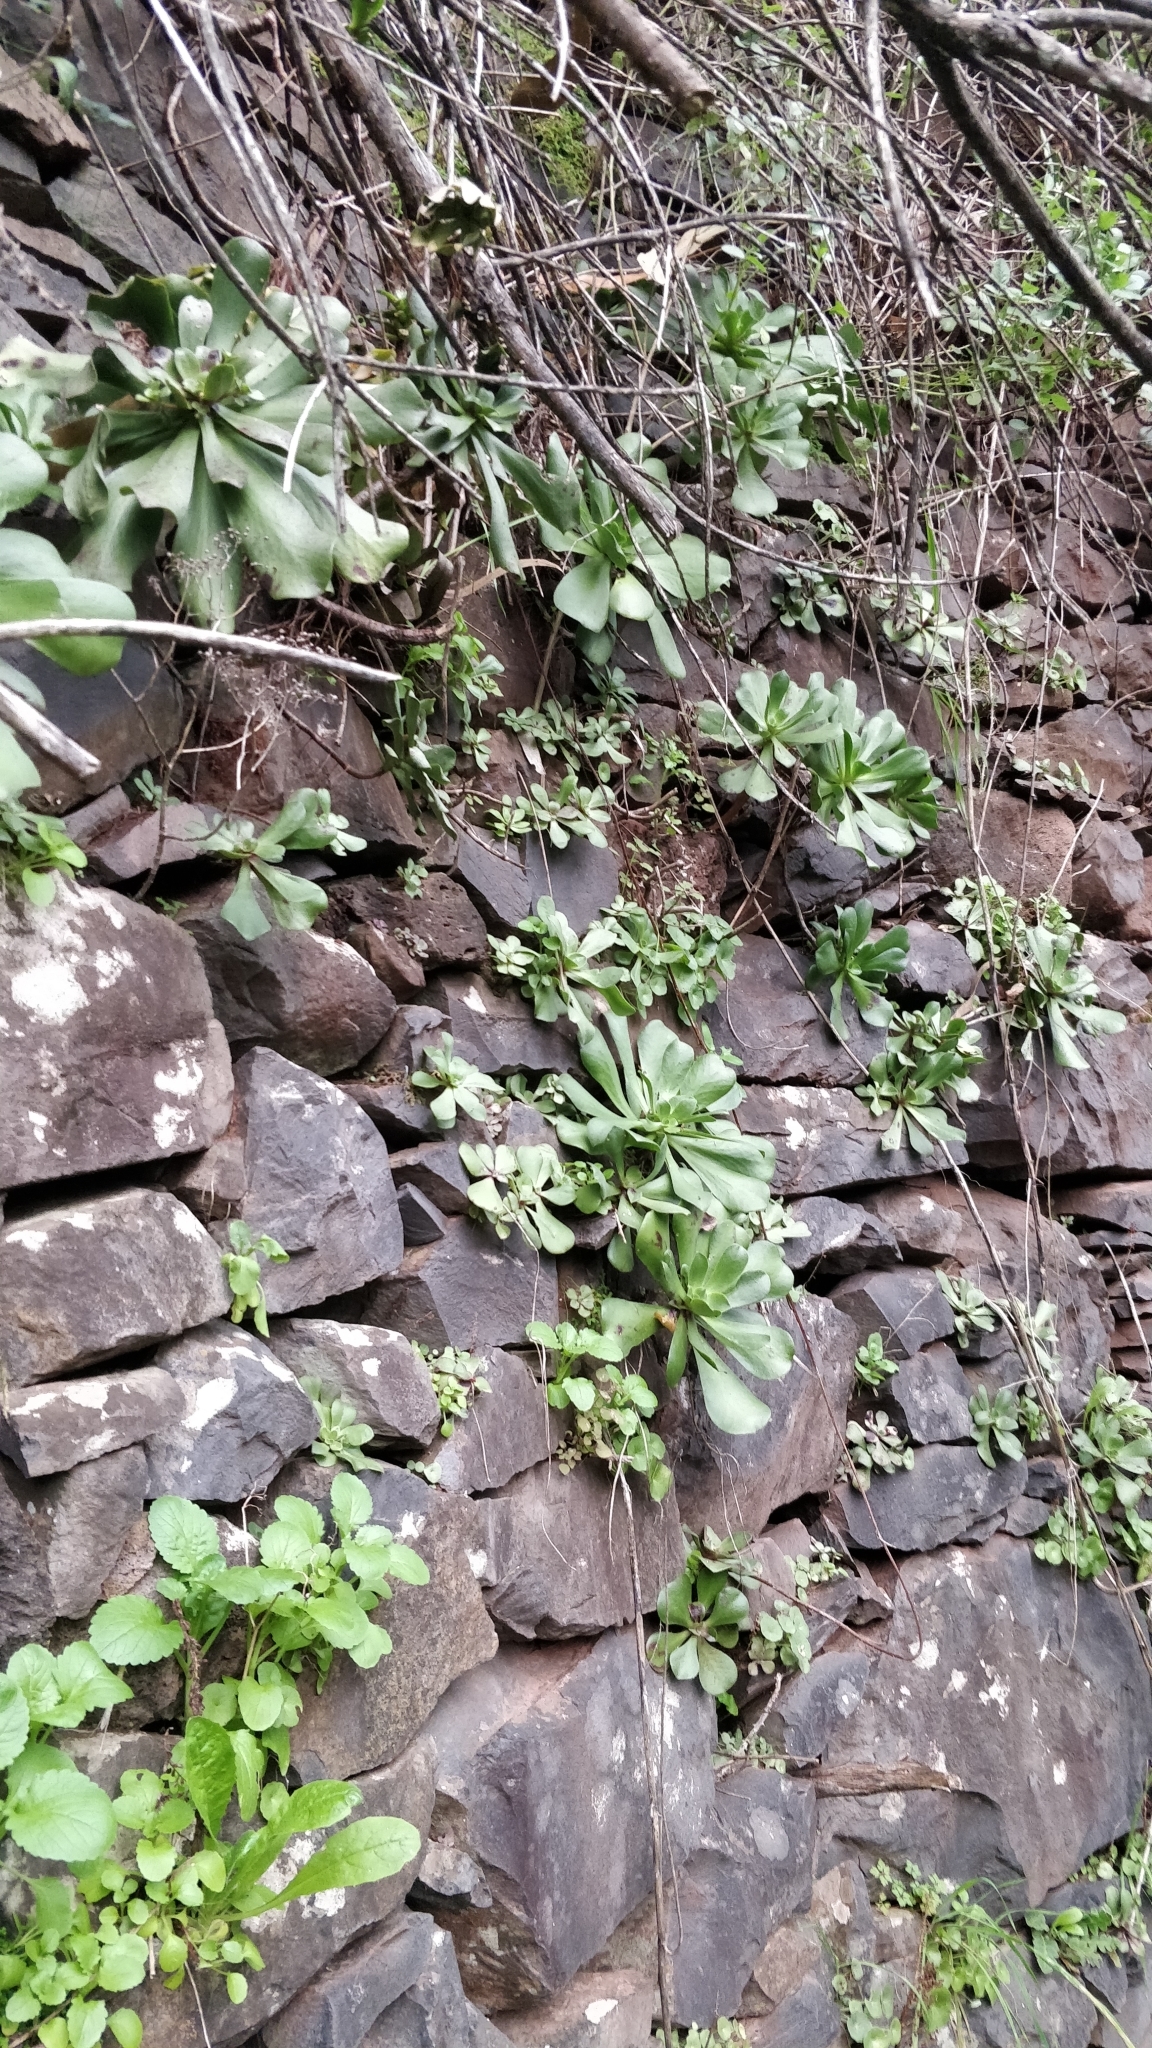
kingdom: Plantae
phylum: Tracheophyta
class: Magnoliopsida
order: Saxifragales
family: Crassulaceae
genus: Aeonium
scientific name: Aeonium glutinosum
